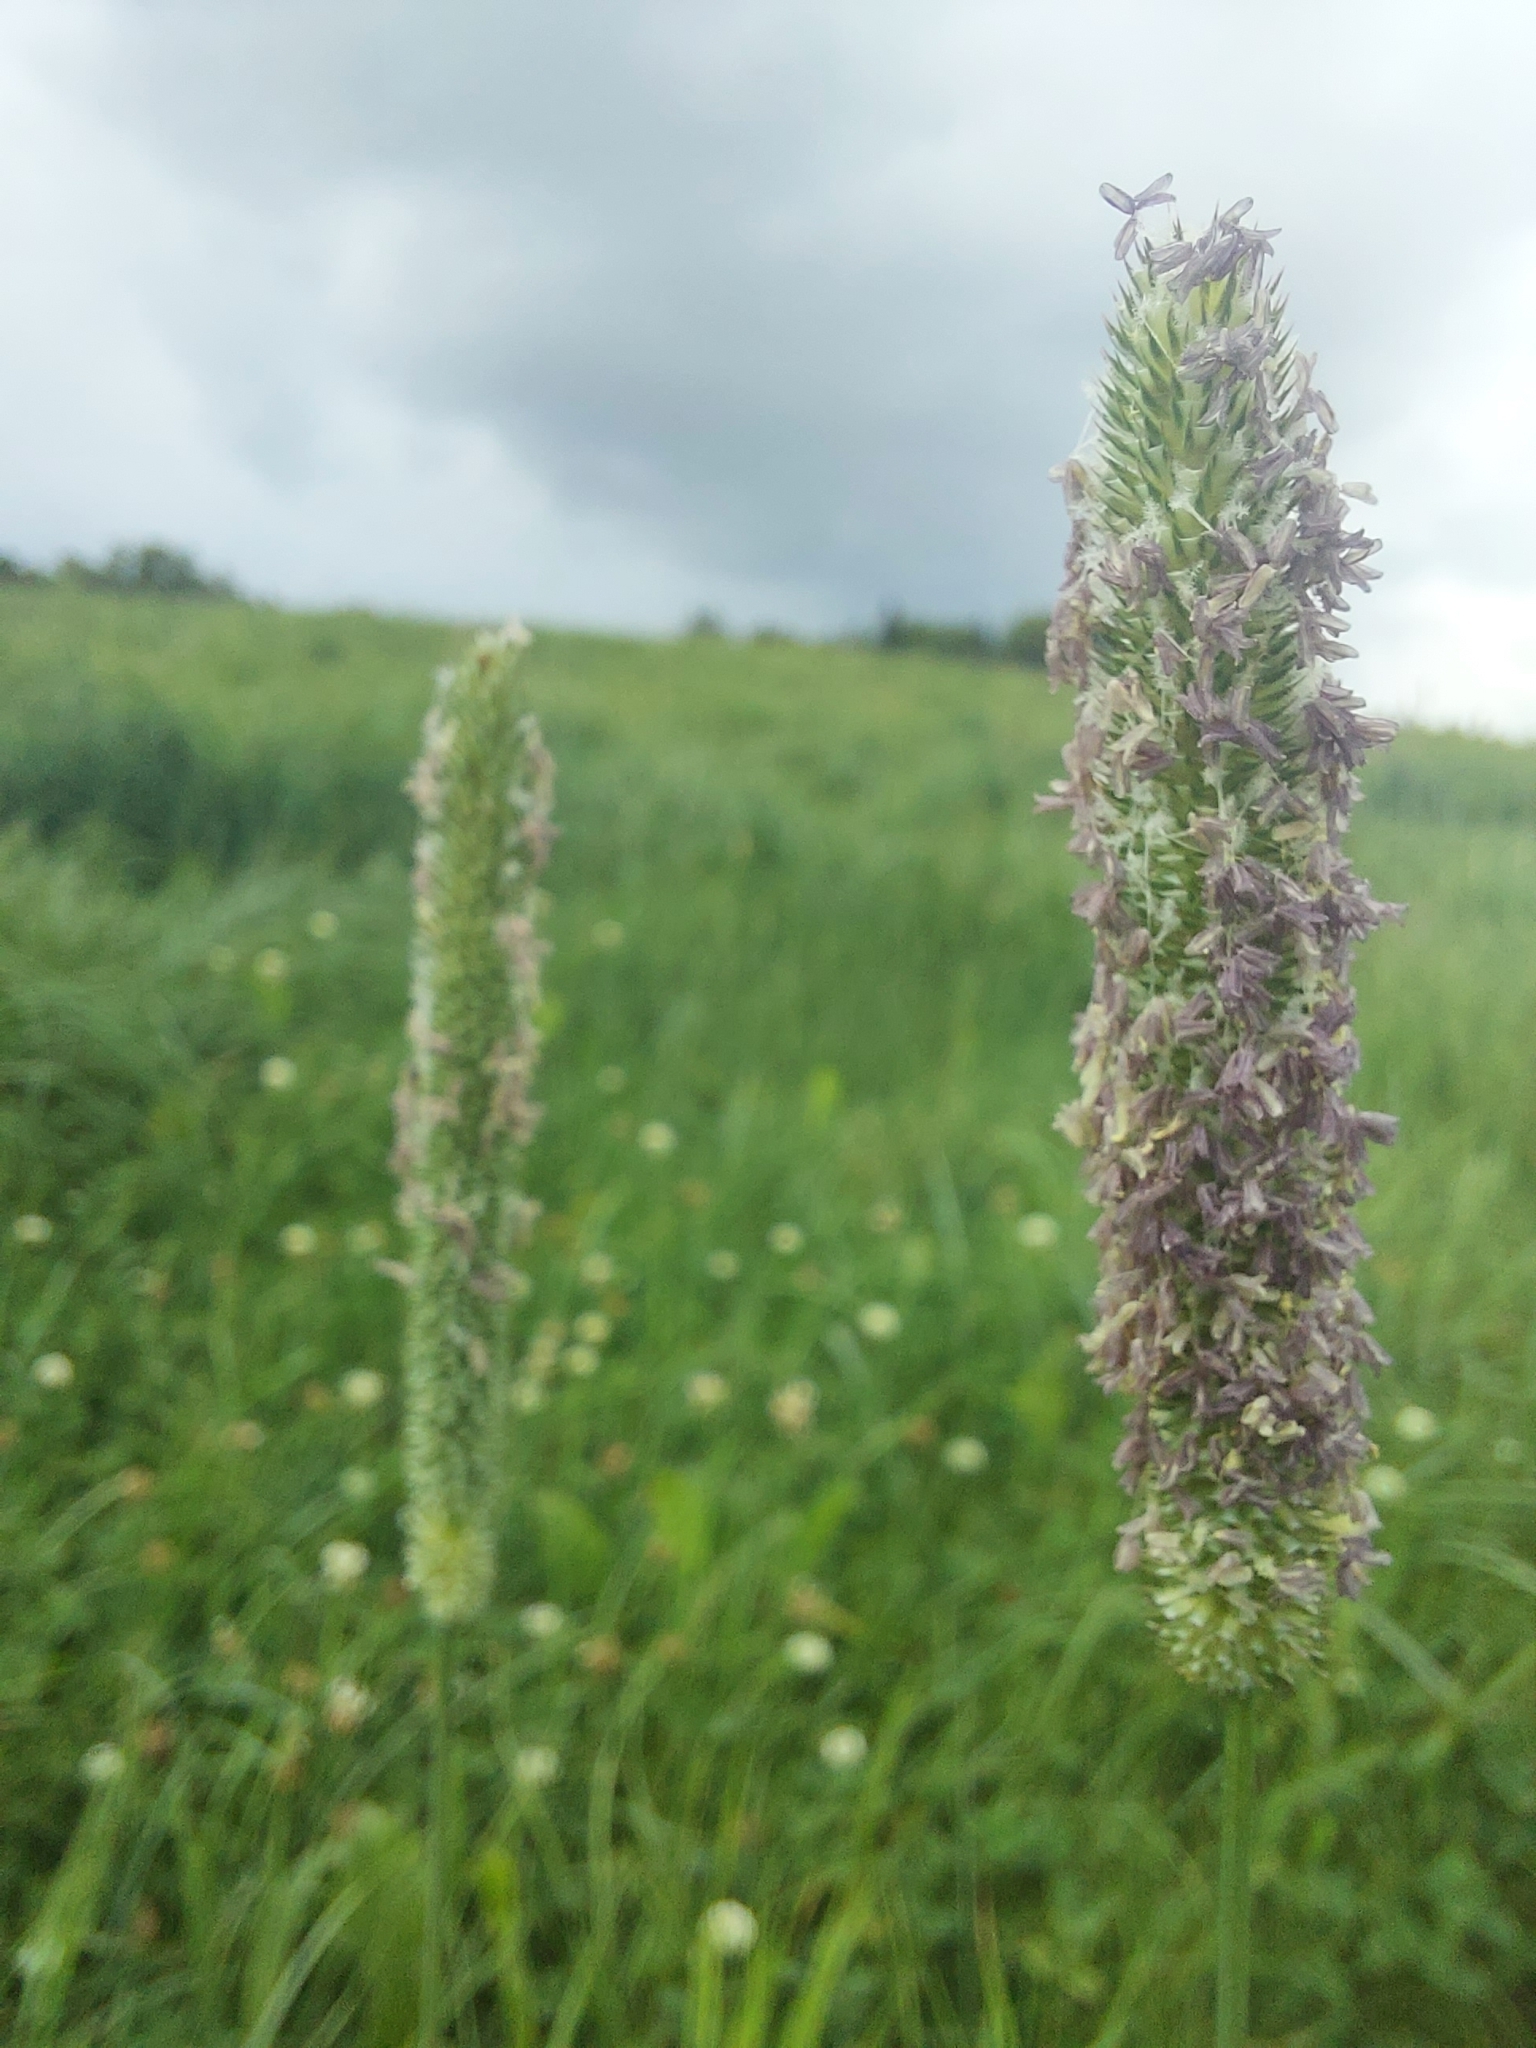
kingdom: Plantae
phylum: Tracheophyta
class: Liliopsida
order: Poales
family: Poaceae
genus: Phleum
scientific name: Phleum pratense
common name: Timothy grass
